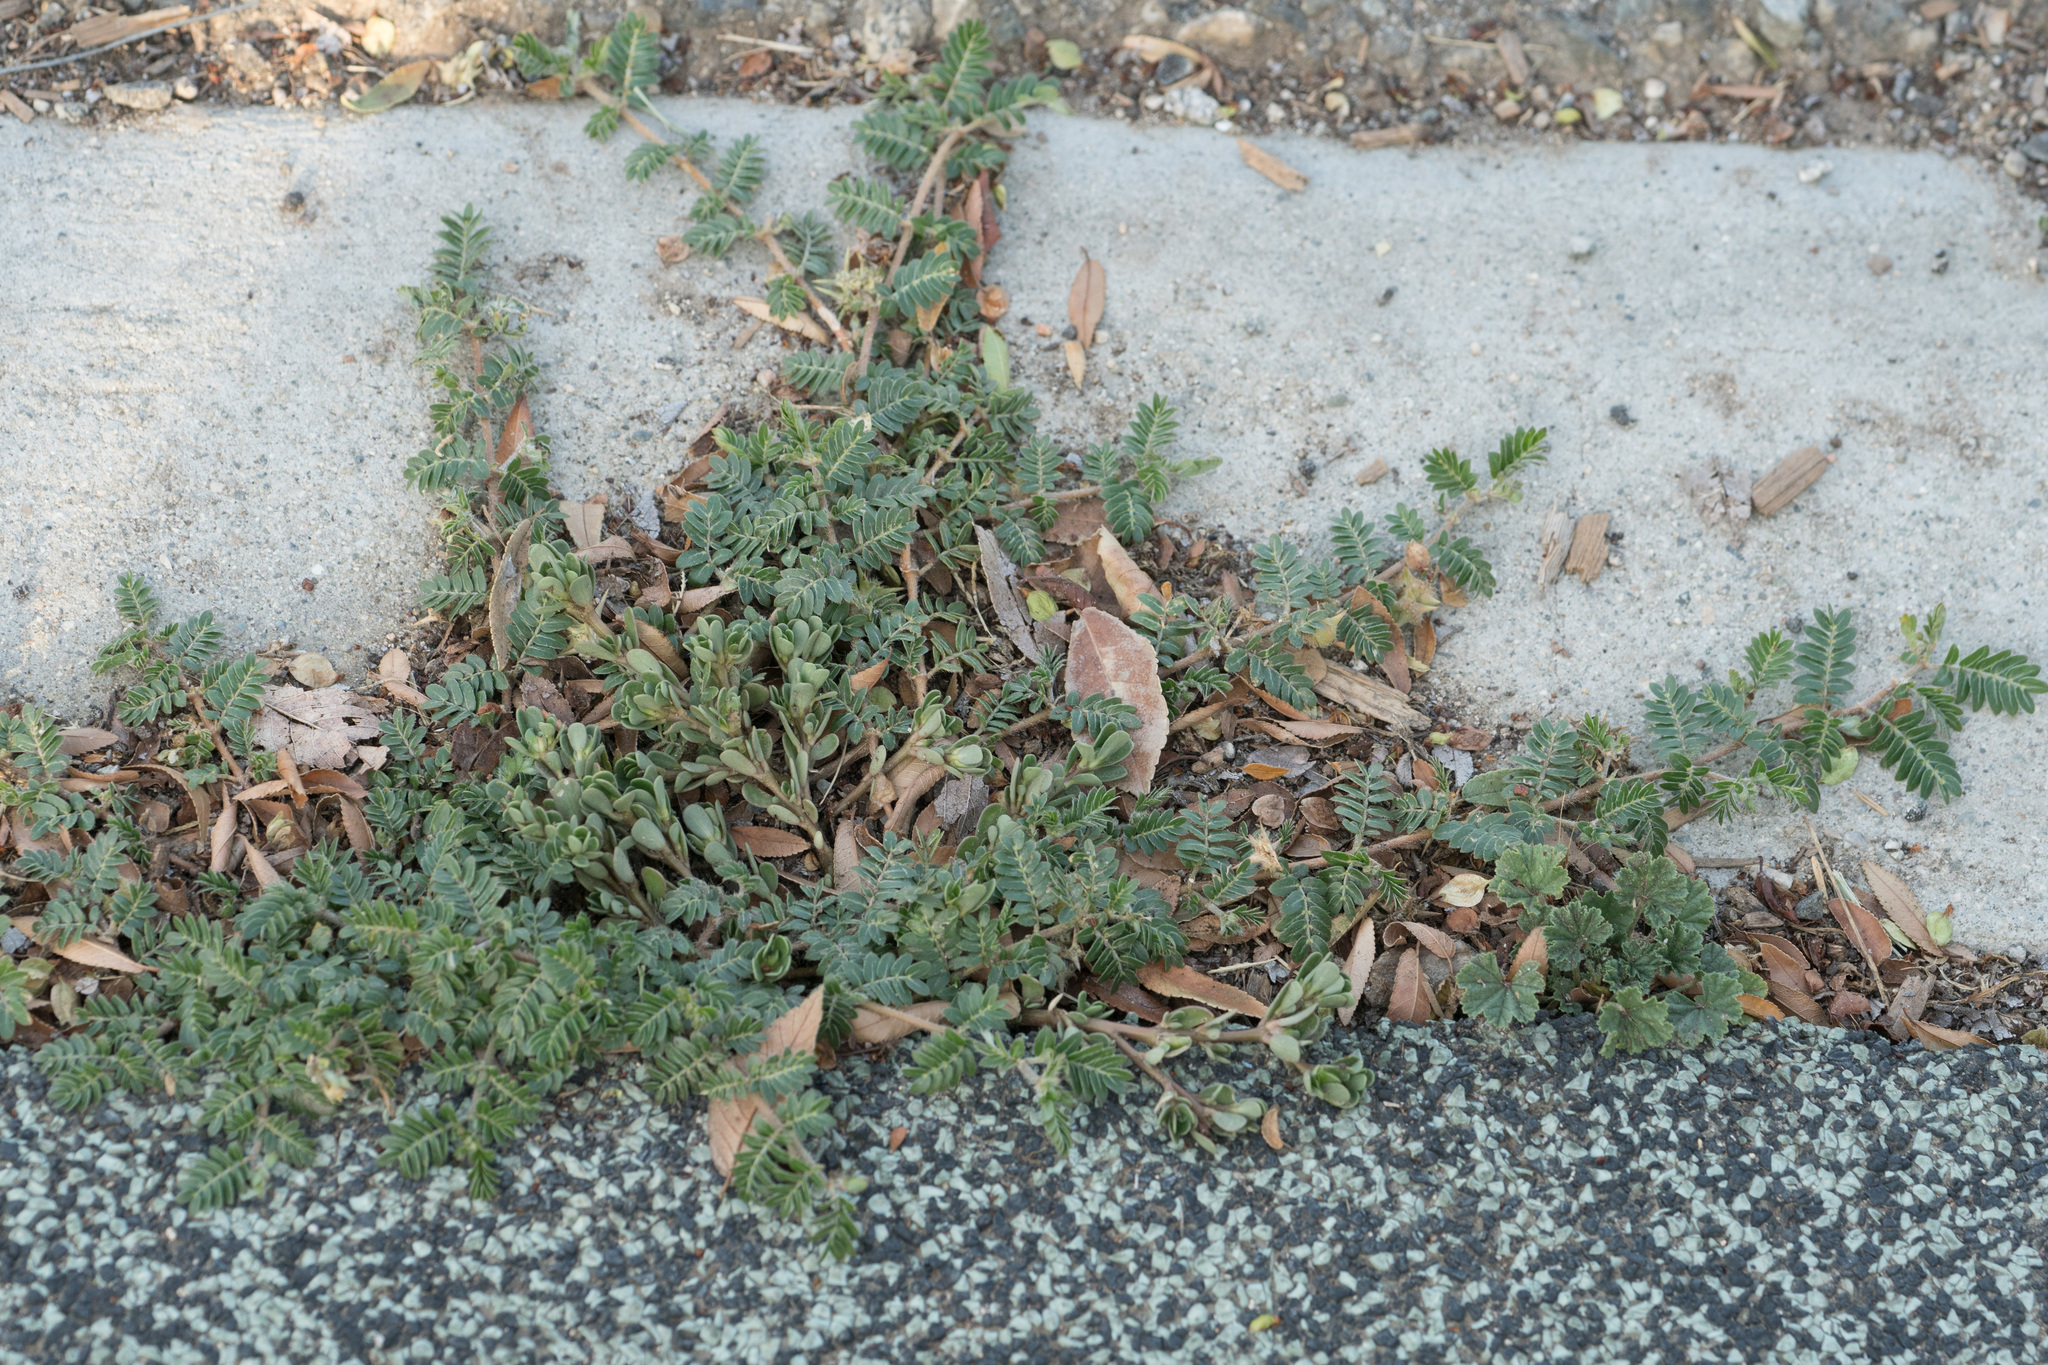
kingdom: Plantae
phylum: Tracheophyta
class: Magnoliopsida
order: Zygophyllales
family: Zygophyllaceae
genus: Tribulus
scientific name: Tribulus terrestris
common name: Puncturevine
